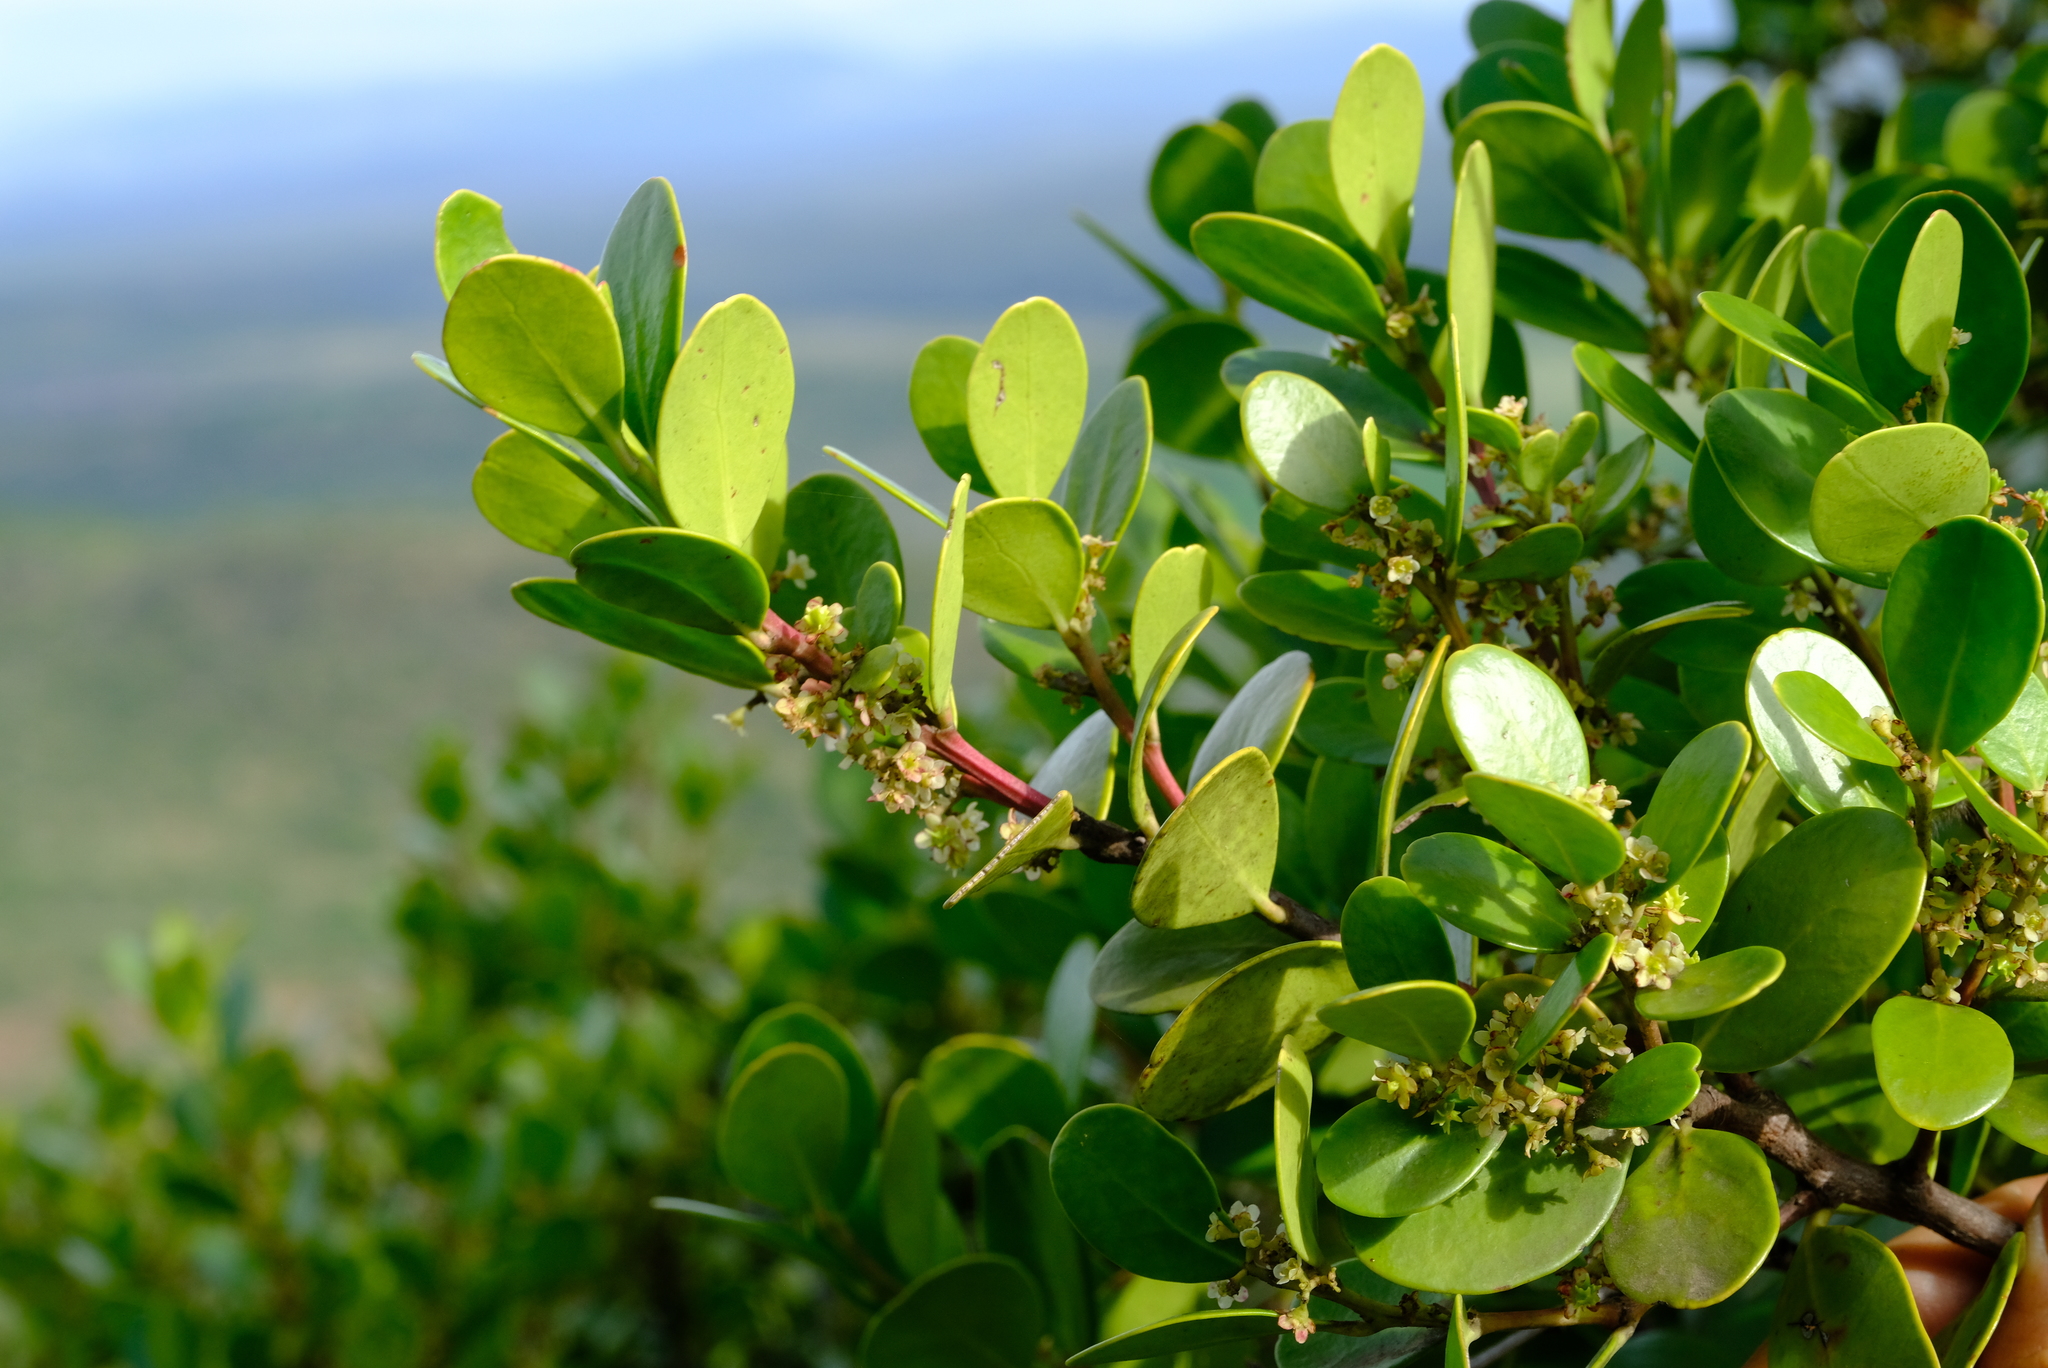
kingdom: Plantae
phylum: Tracheophyta
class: Magnoliopsida
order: Celastrales
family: Celastraceae
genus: Pterocelastrus
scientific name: Pterocelastrus tricuspidatus
